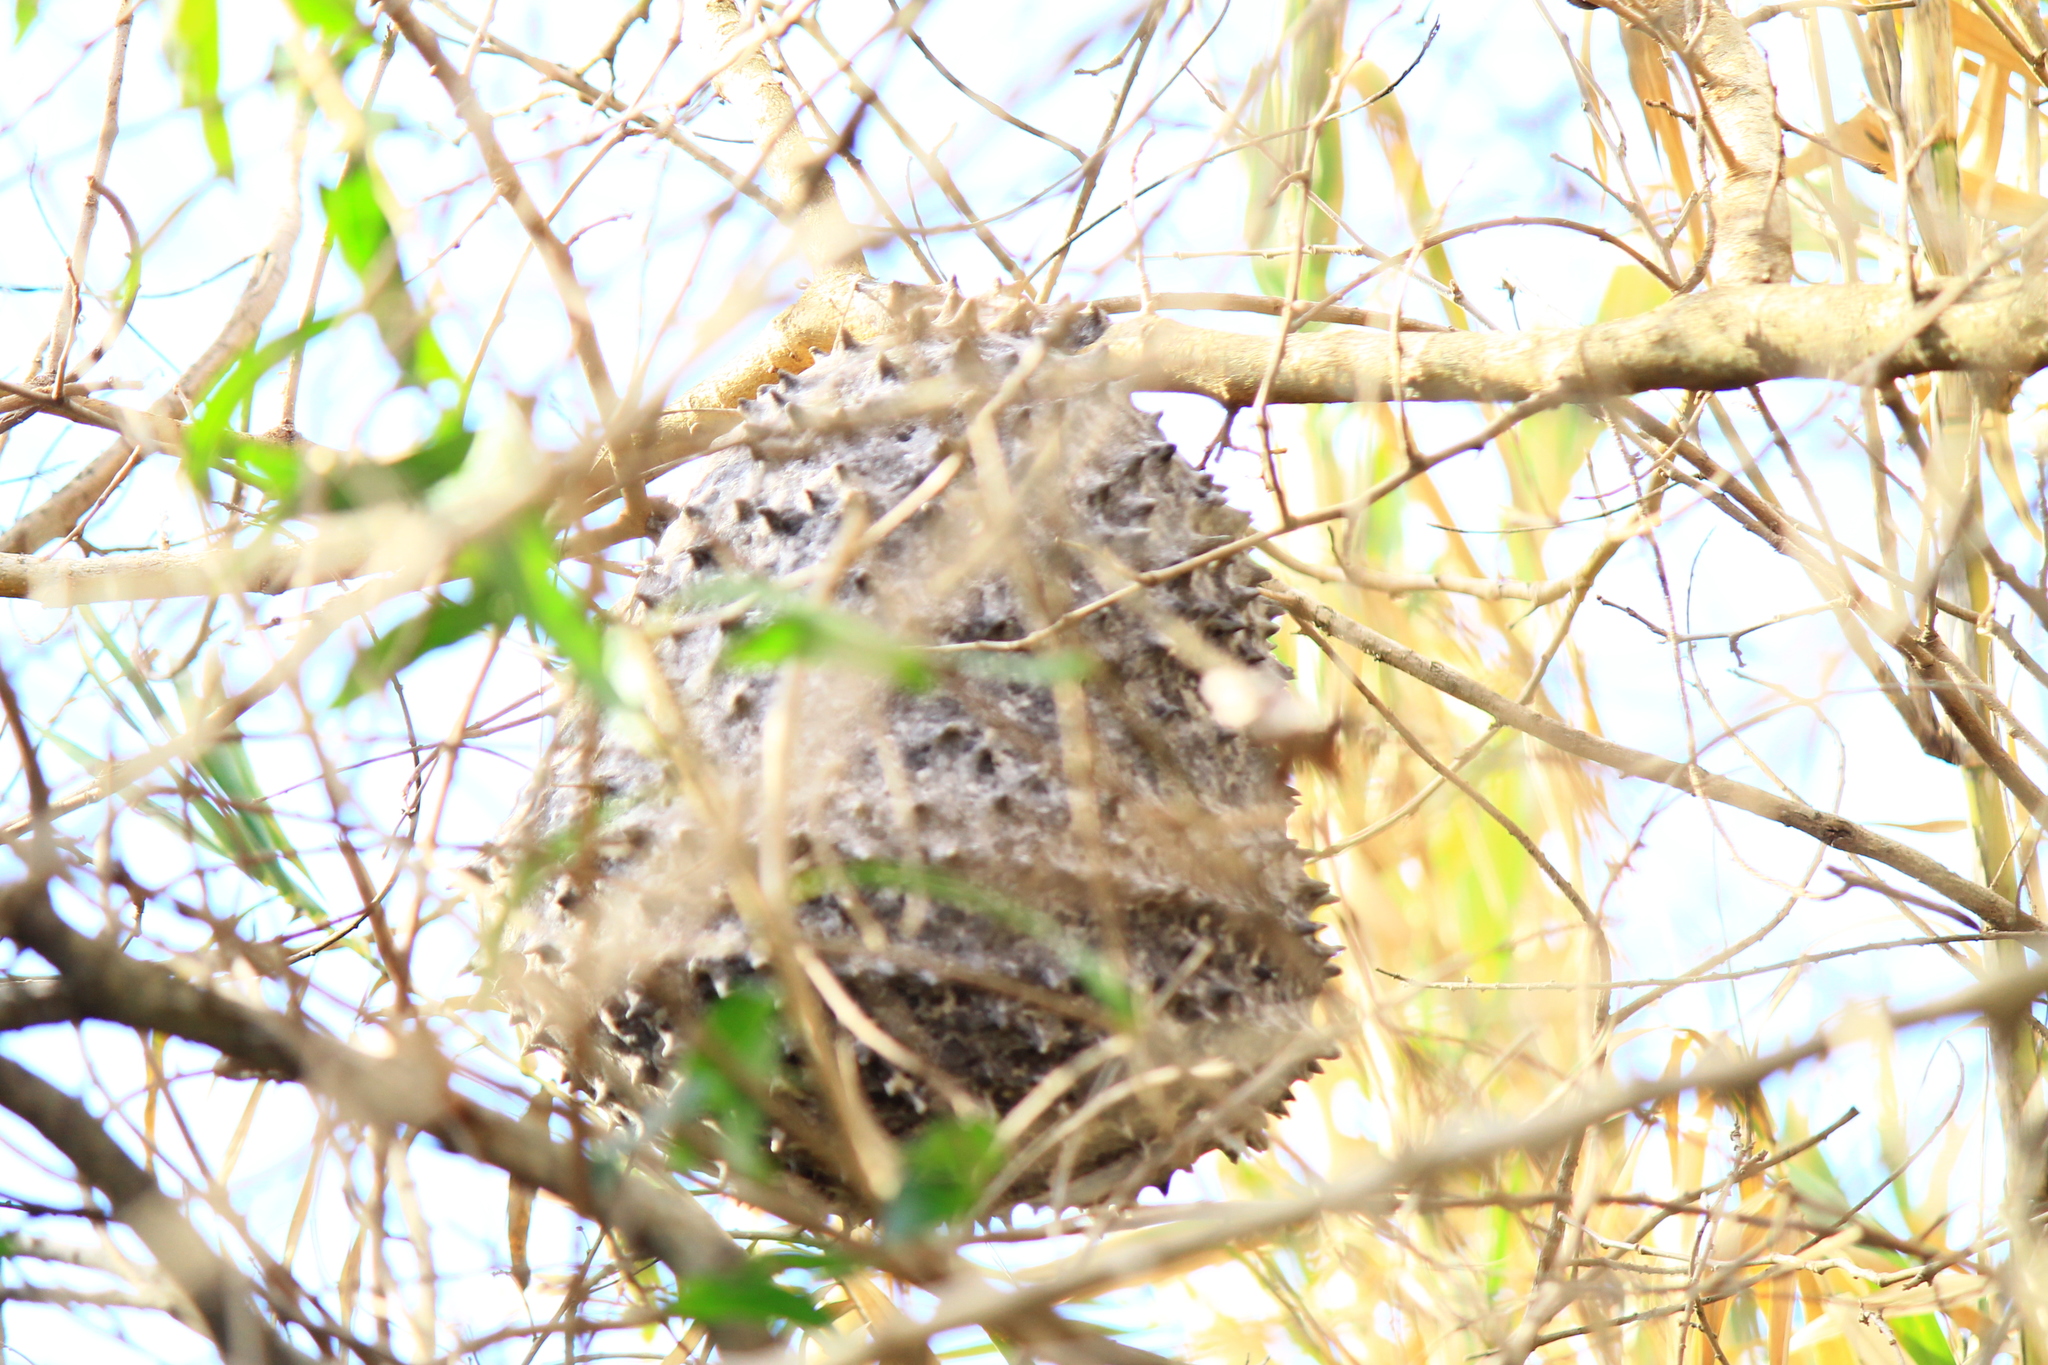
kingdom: Animalia
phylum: Arthropoda
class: Insecta
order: Hymenoptera
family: Eumenidae
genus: Polybia
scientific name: Polybia scutellaris
